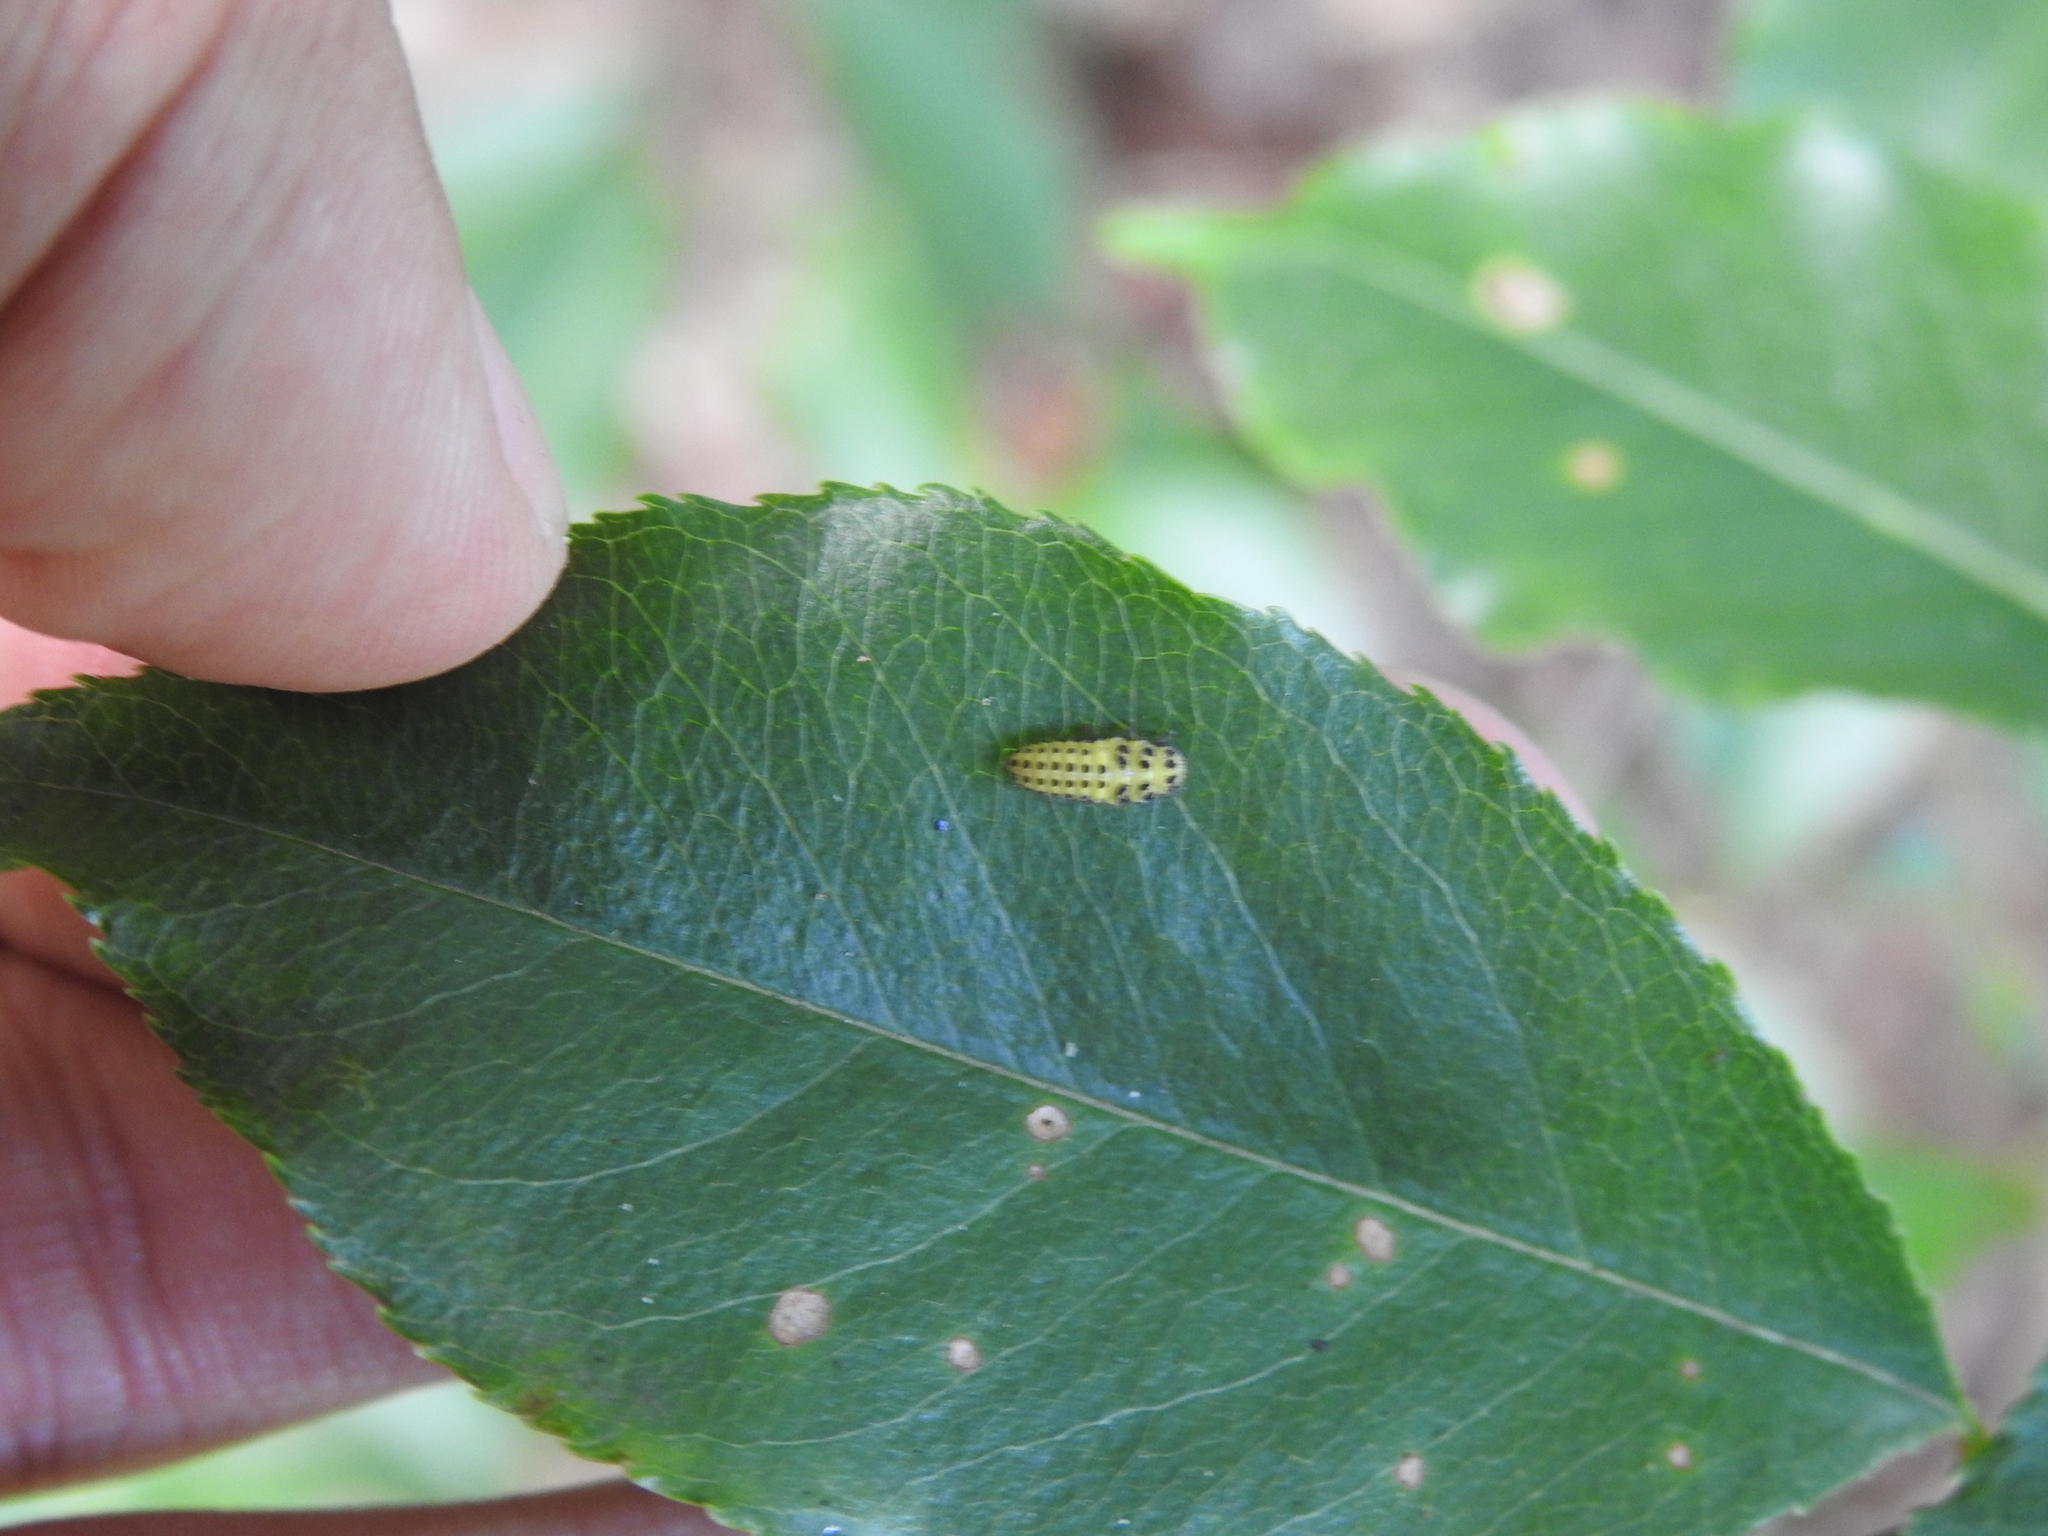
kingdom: Animalia
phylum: Arthropoda
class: Insecta
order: Coleoptera
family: Coccinellidae
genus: Psyllobora
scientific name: Psyllobora vigintiduopunctata
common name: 22-spot ladybird
